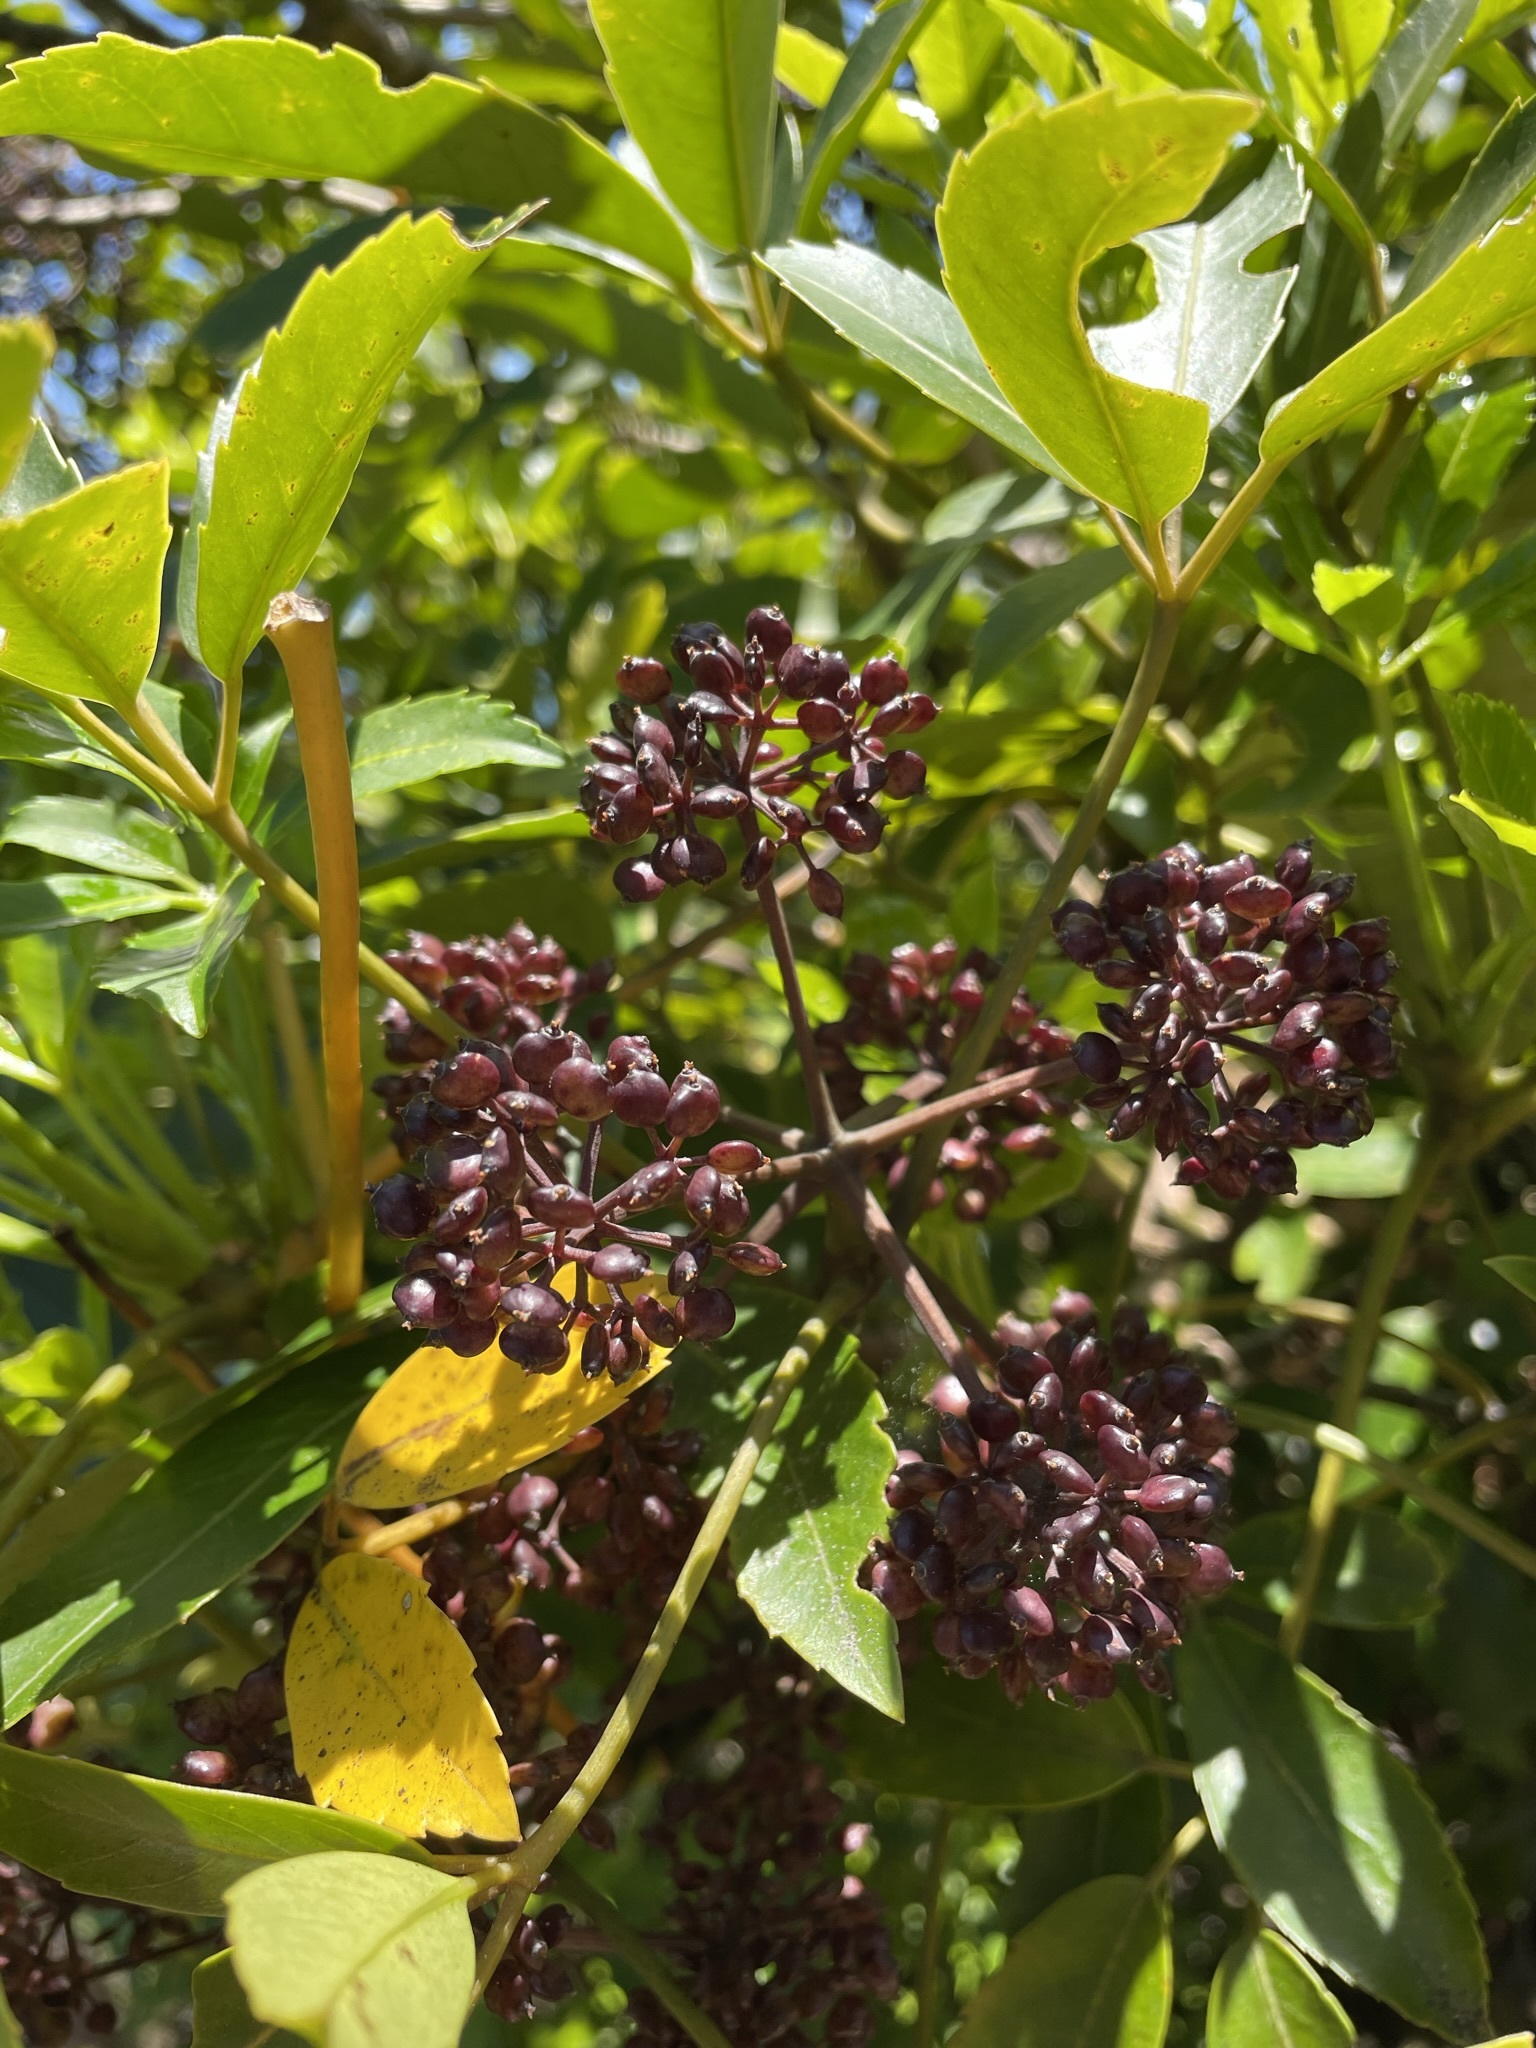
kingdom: Plantae
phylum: Tracheophyta
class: Magnoliopsida
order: Apiales
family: Araliaceae
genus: Neopanax
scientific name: Neopanax arboreus
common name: Five-fingers
